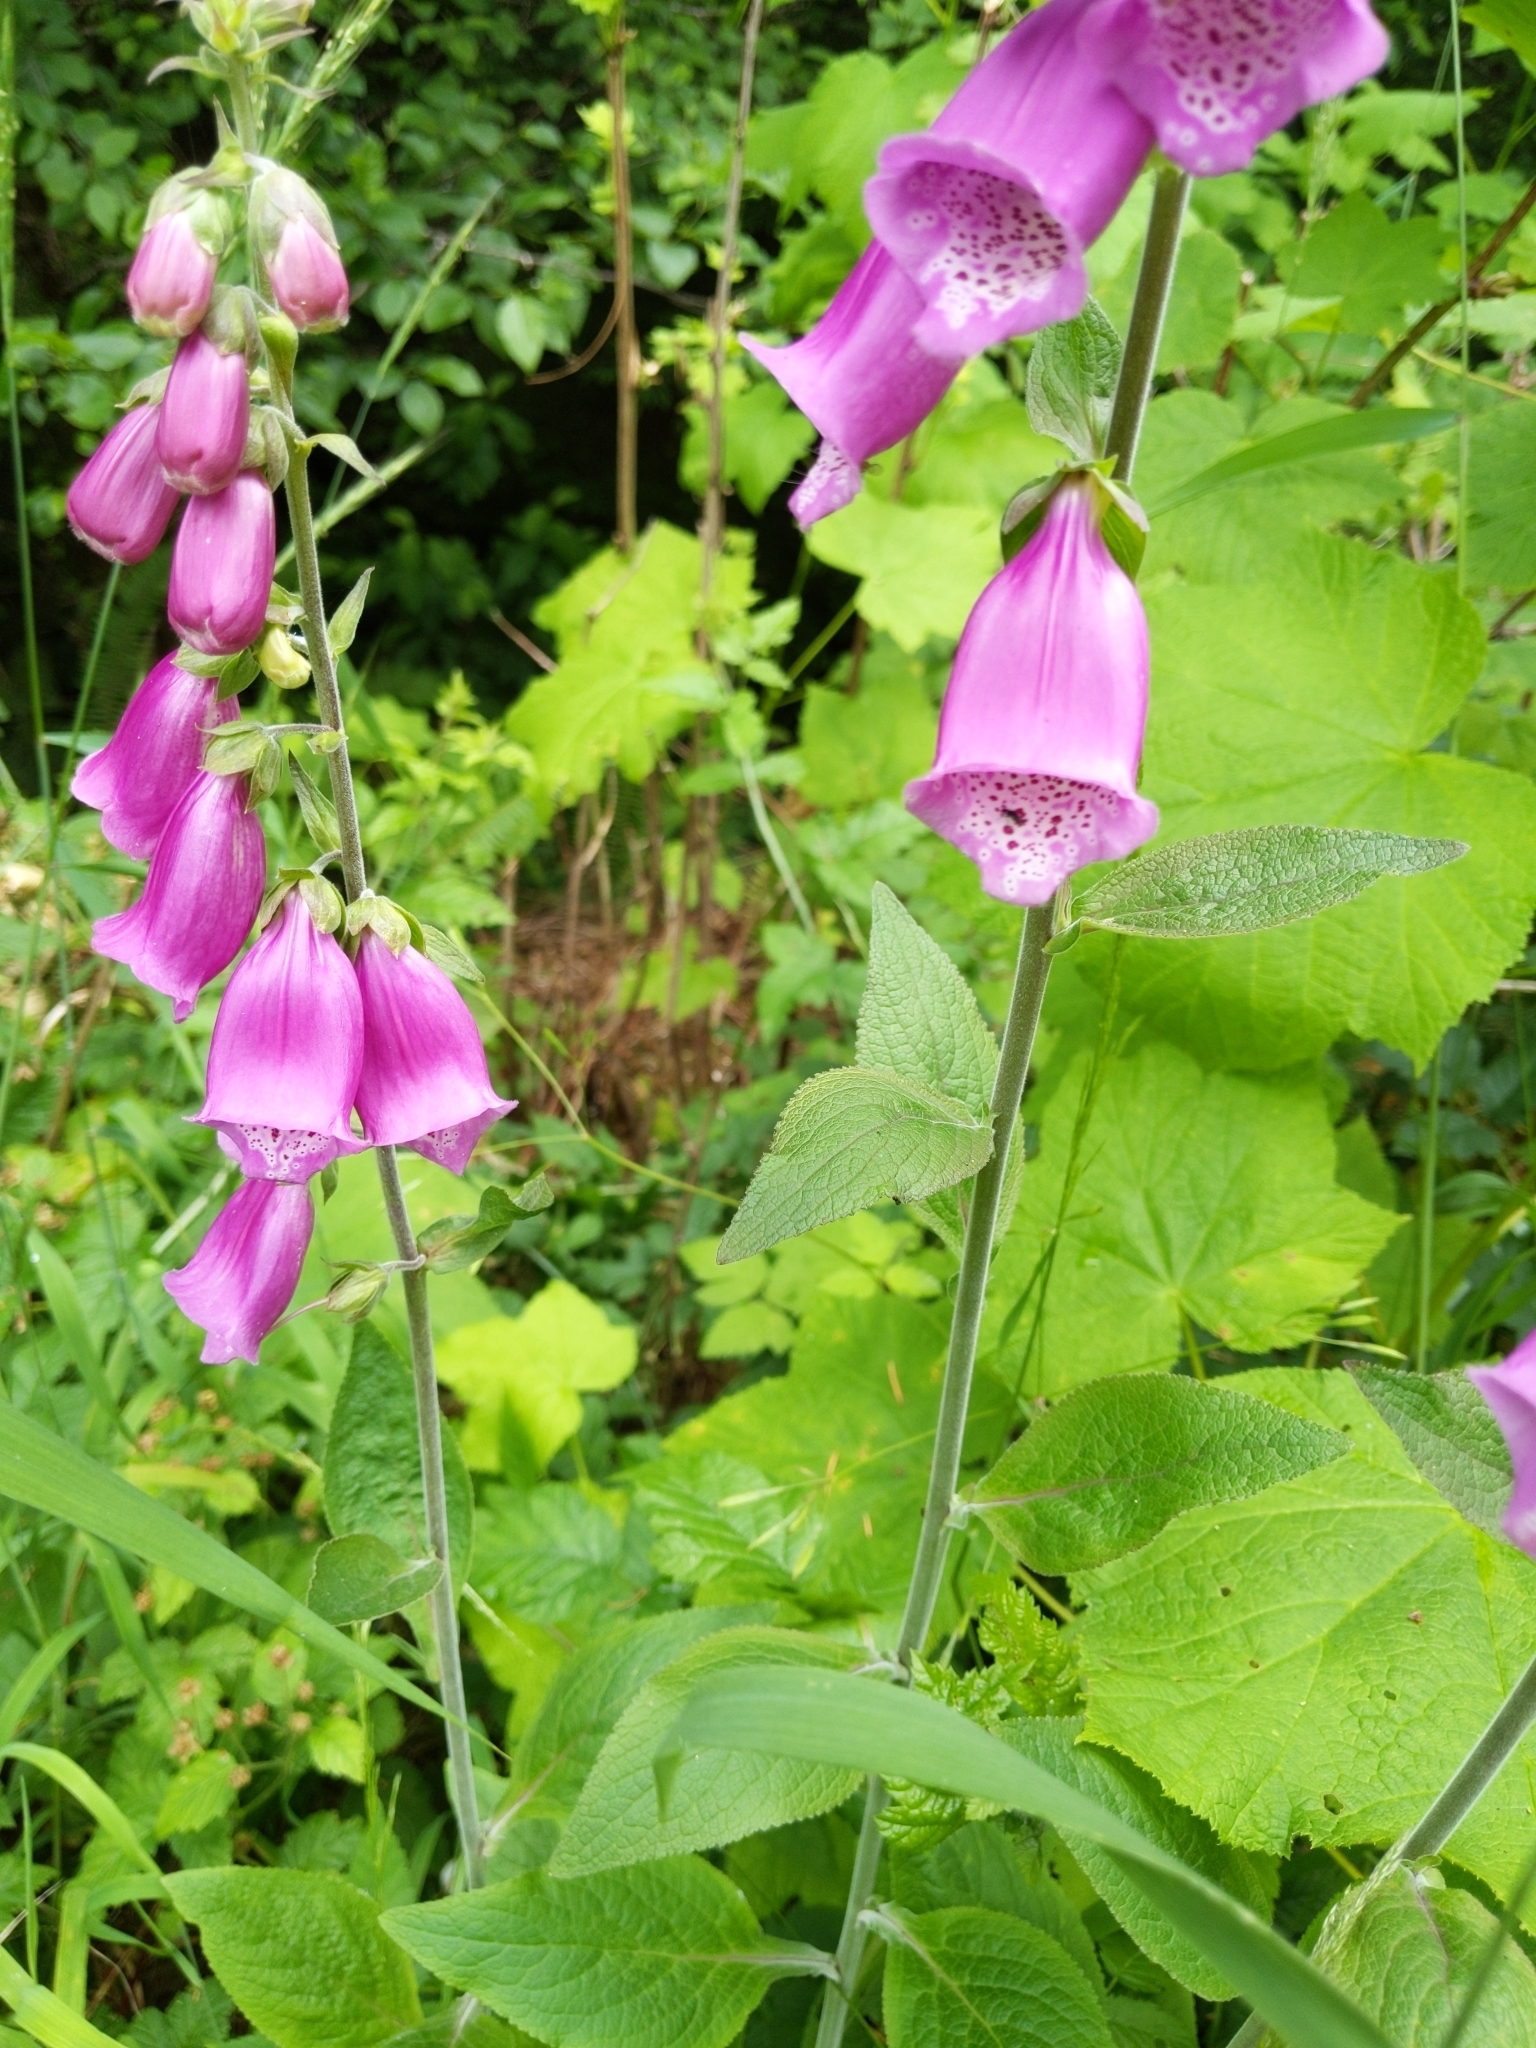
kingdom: Plantae
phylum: Tracheophyta
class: Magnoliopsida
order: Lamiales
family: Plantaginaceae
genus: Digitalis
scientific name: Digitalis purpurea
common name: Foxglove
